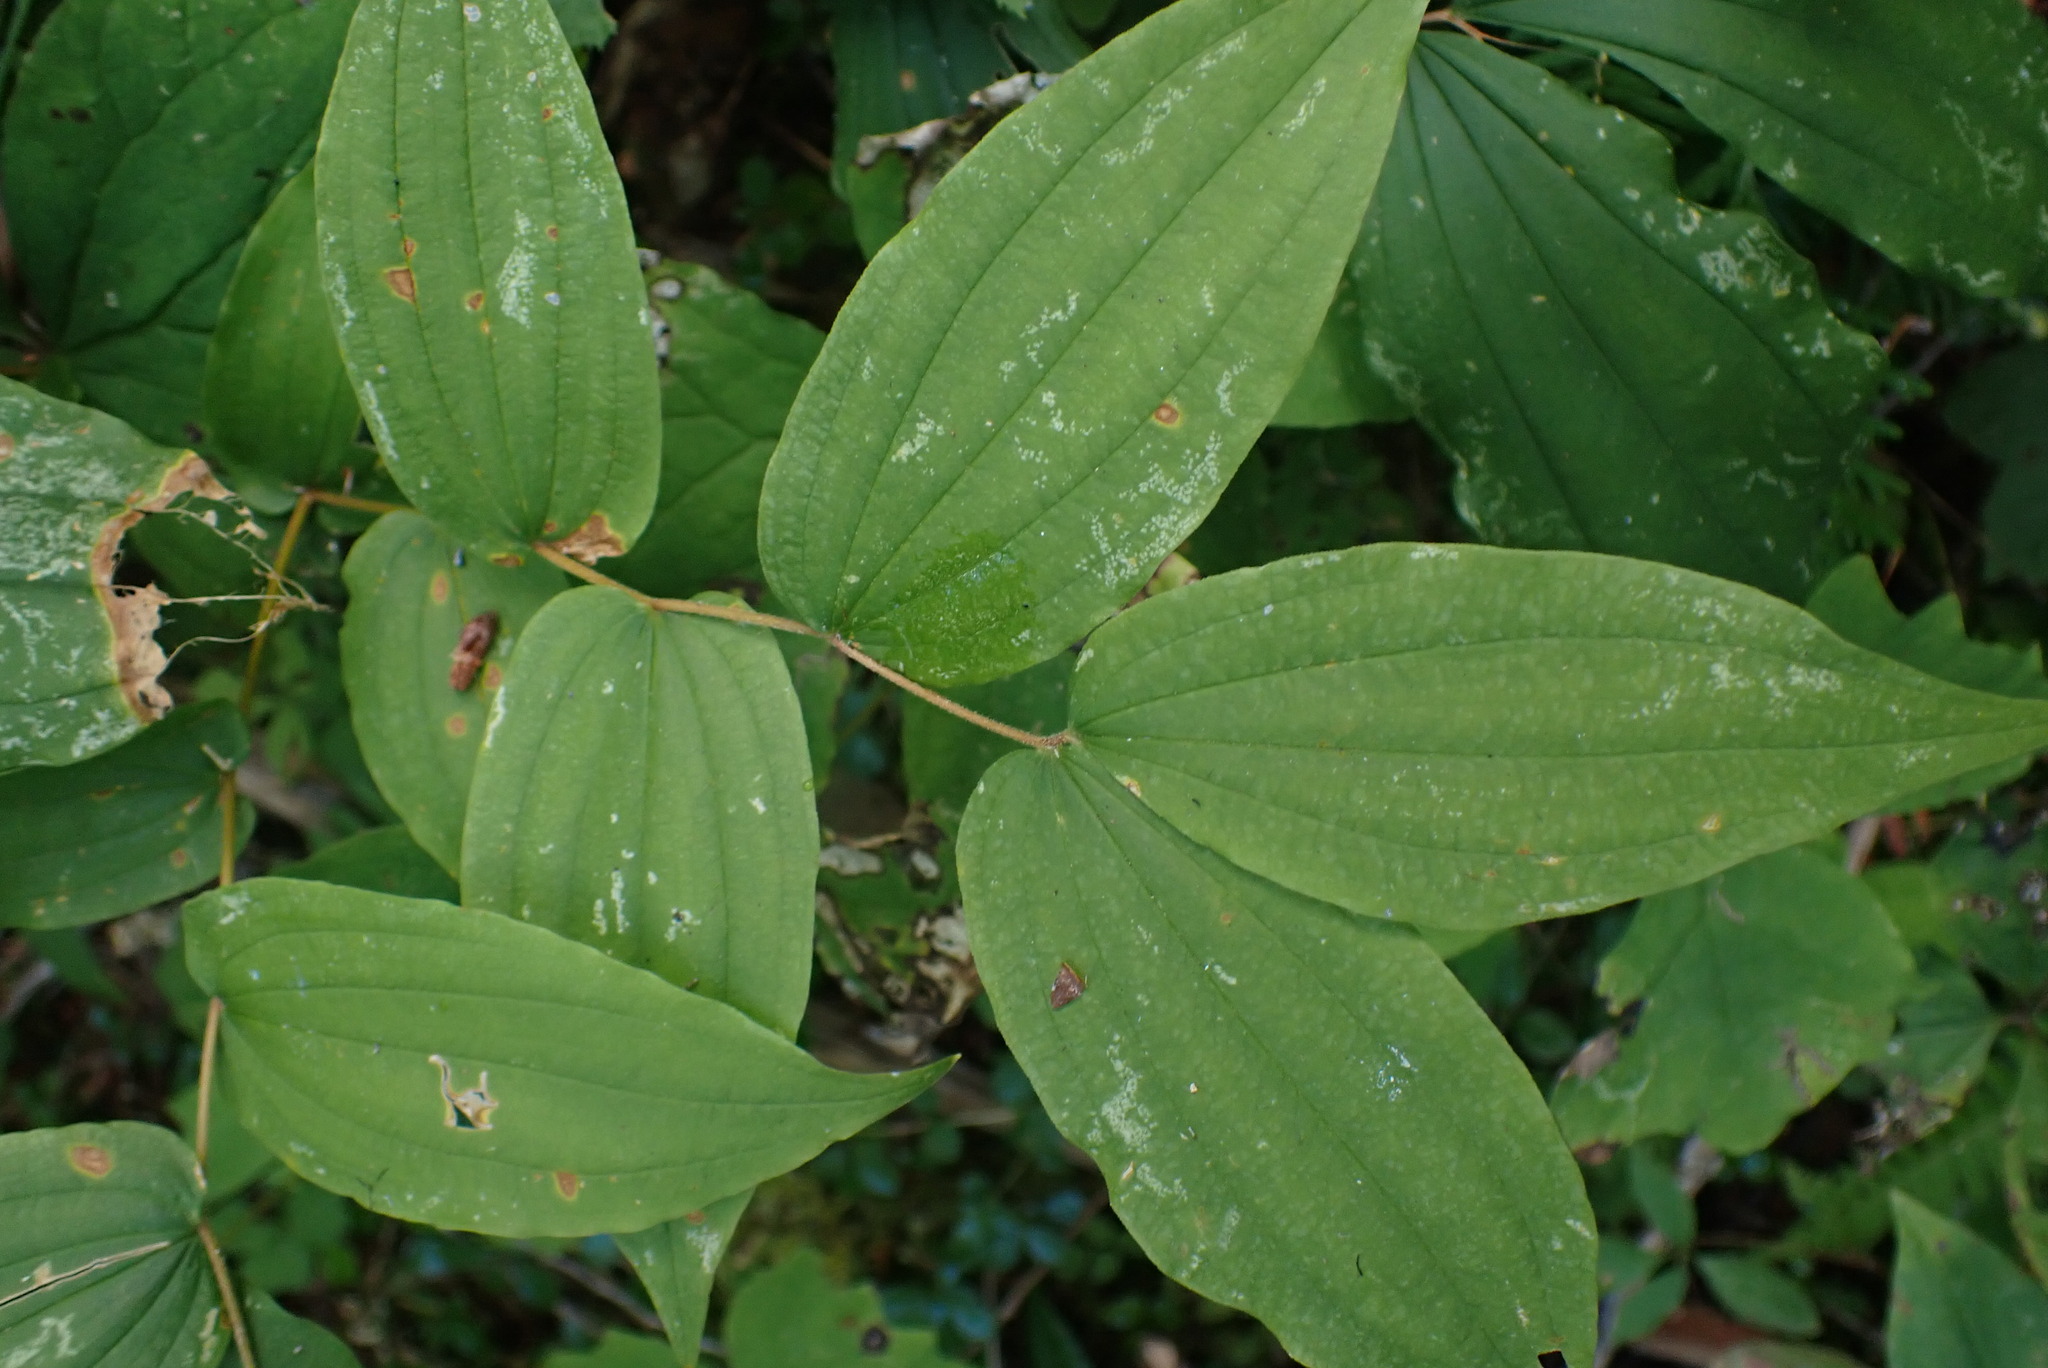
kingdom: Plantae
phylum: Tracheophyta
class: Liliopsida
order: Liliales
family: Liliaceae
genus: Prosartes
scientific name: Prosartes hookeri
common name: Fairy-bells
